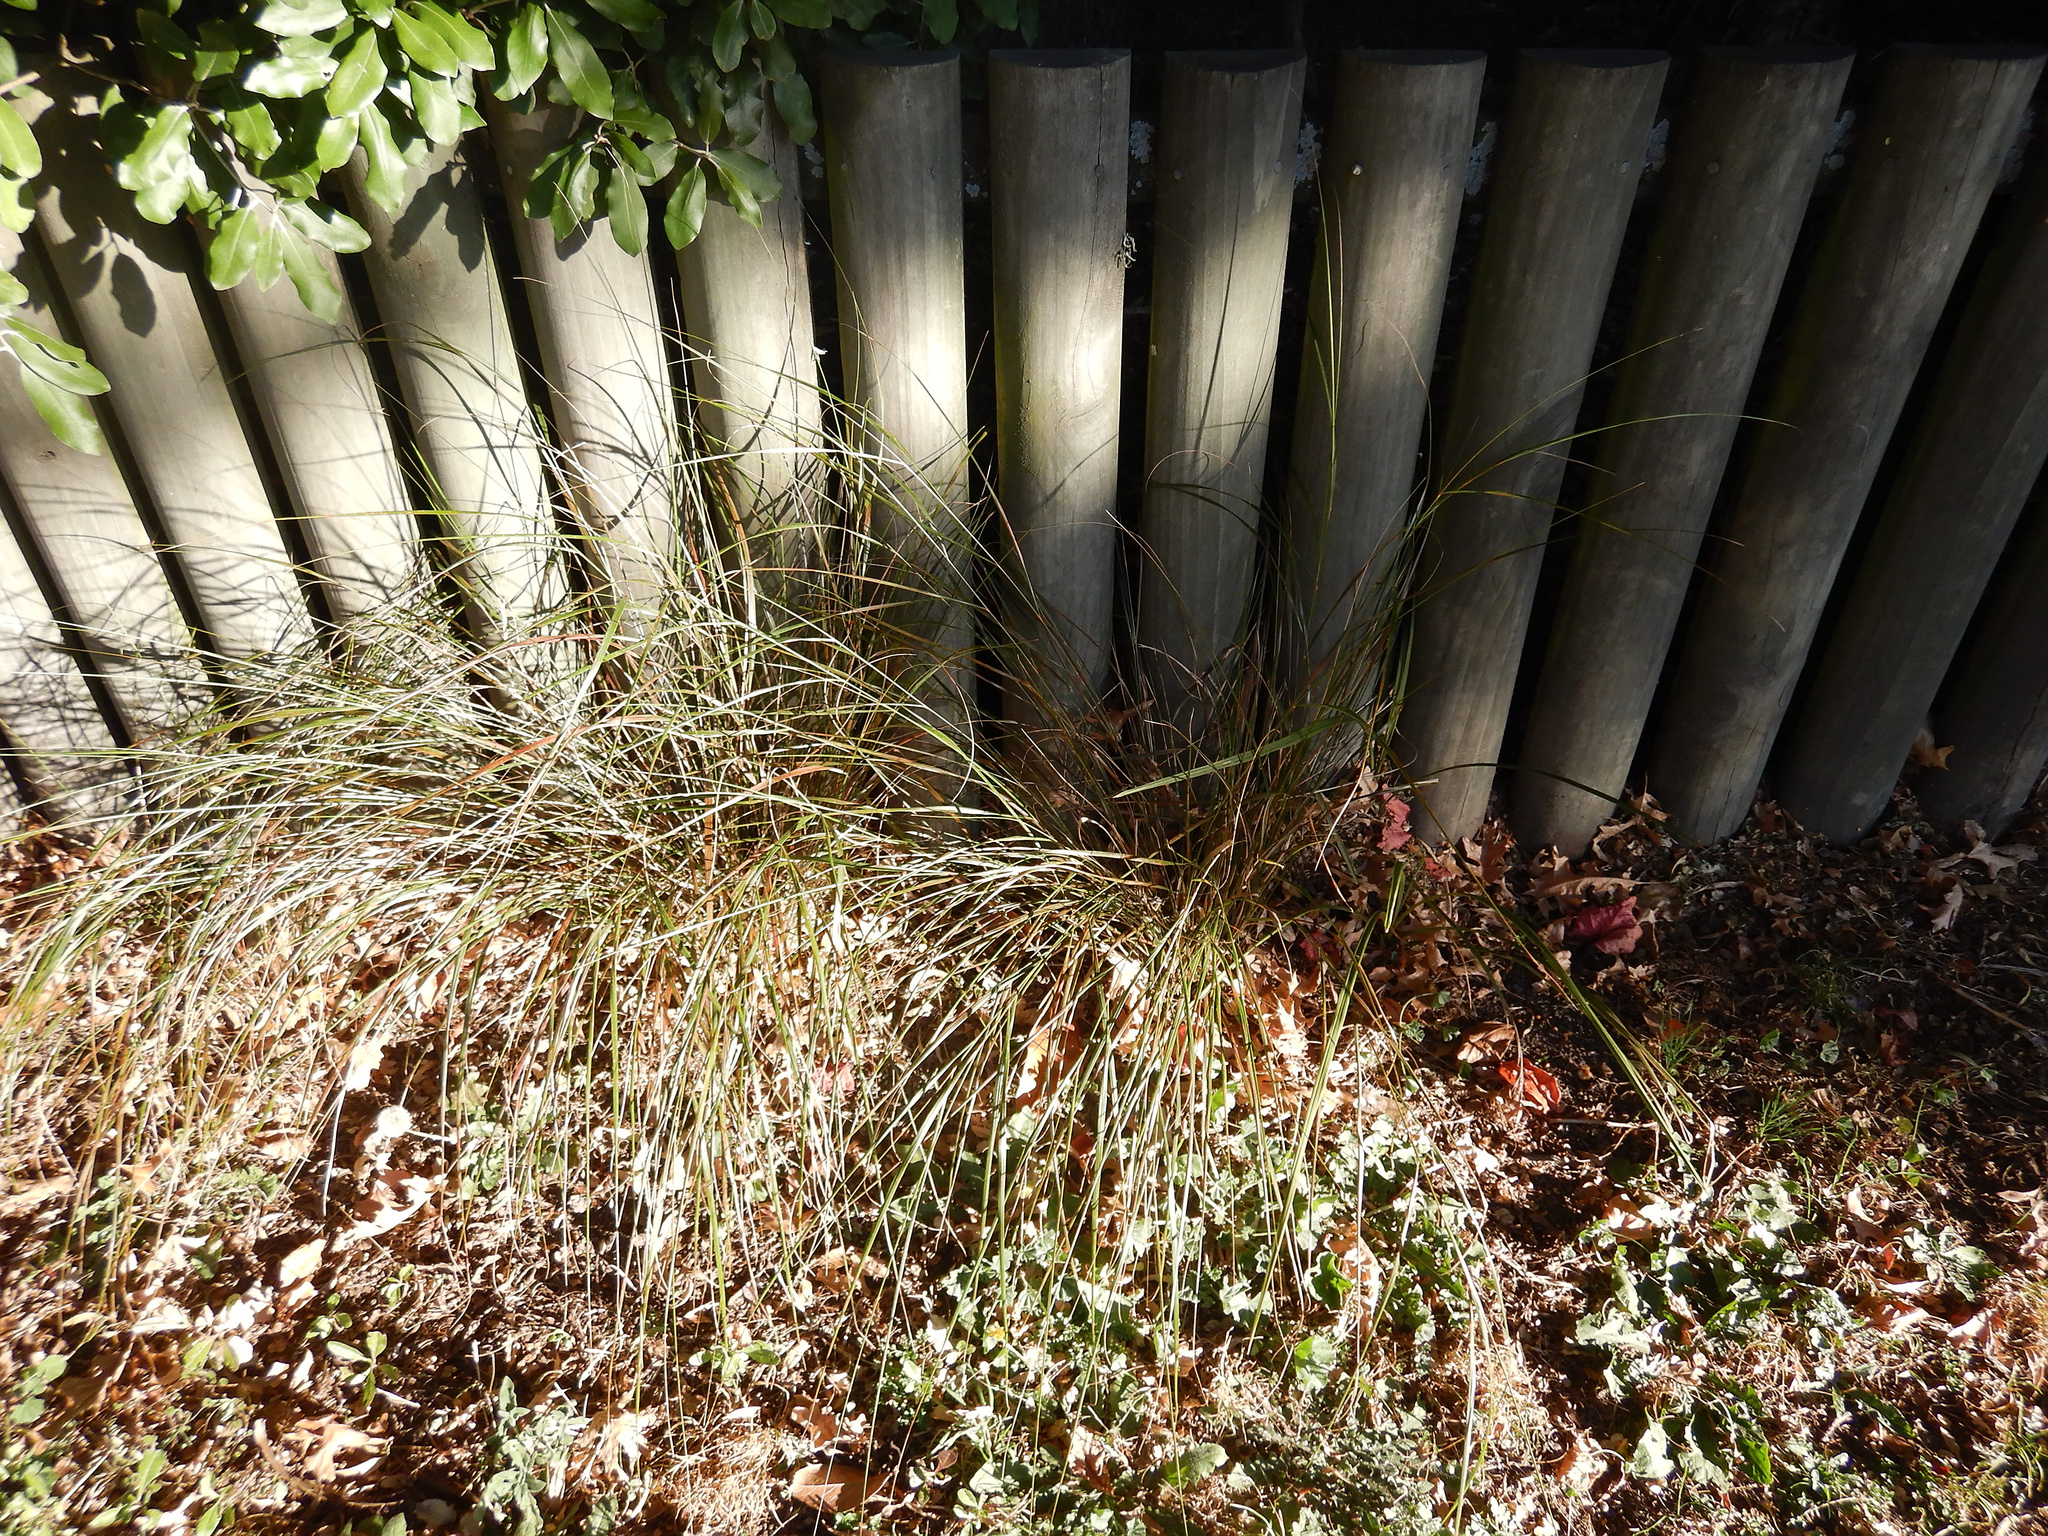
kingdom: Plantae
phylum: Tracheophyta
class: Liliopsida
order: Poales
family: Poaceae
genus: Anemanthele
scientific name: Anemanthele lessoniana
